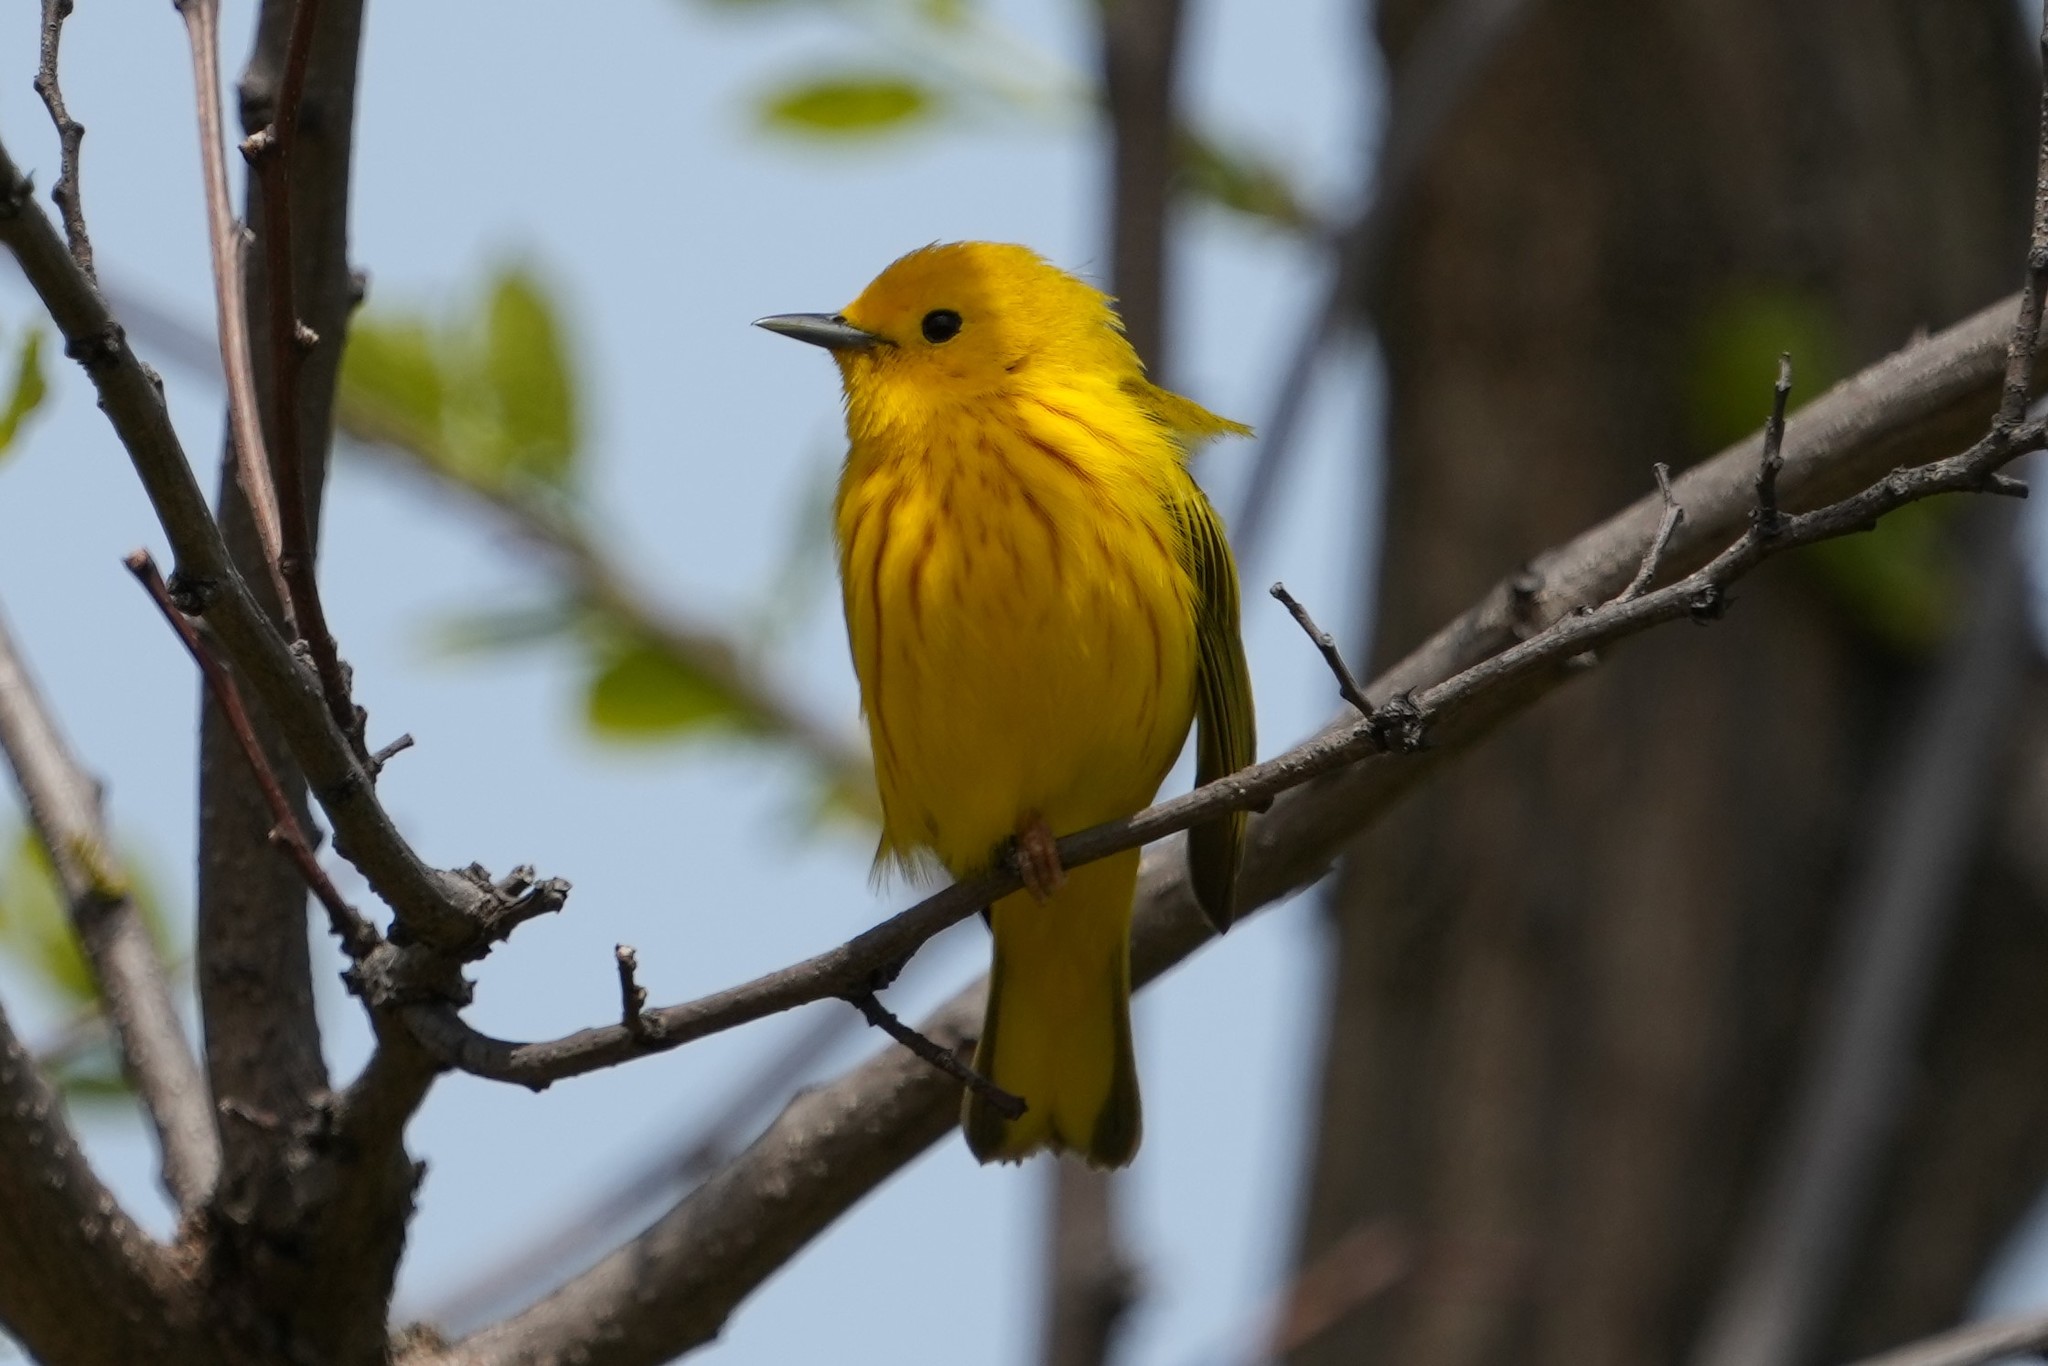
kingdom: Animalia
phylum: Chordata
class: Aves
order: Passeriformes
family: Parulidae
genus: Setophaga
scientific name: Setophaga petechia
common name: Yellow warbler
